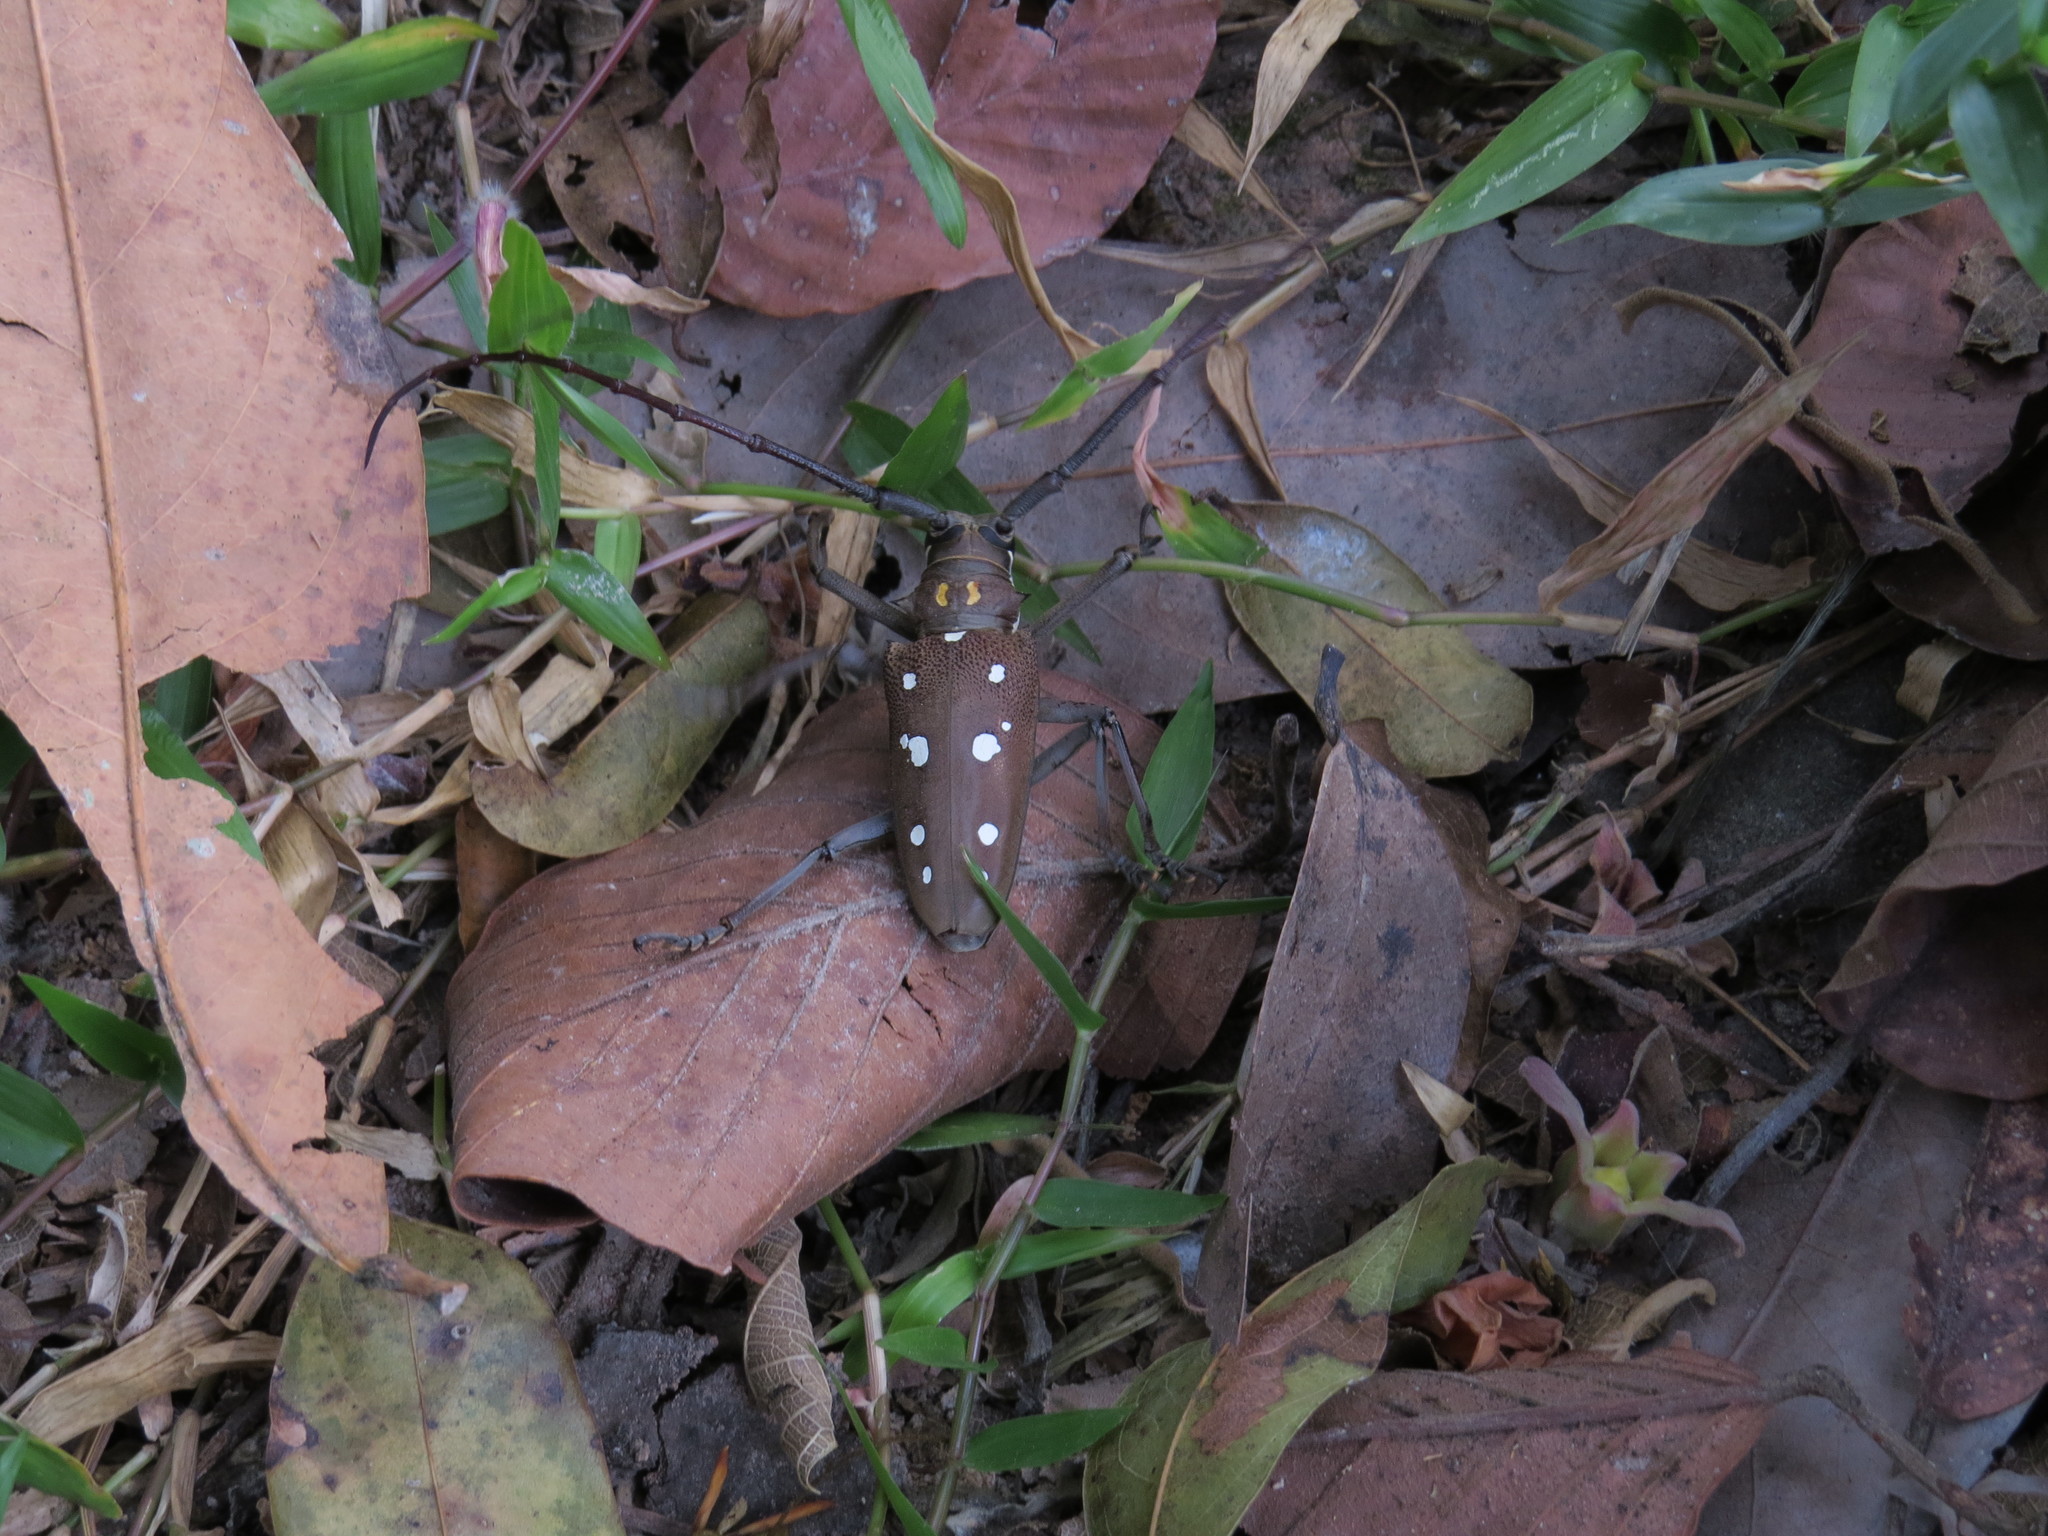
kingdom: Animalia
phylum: Arthropoda
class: Insecta
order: Coleoptera
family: Cerambycidae
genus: Batocera
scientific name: Batocera rubus
